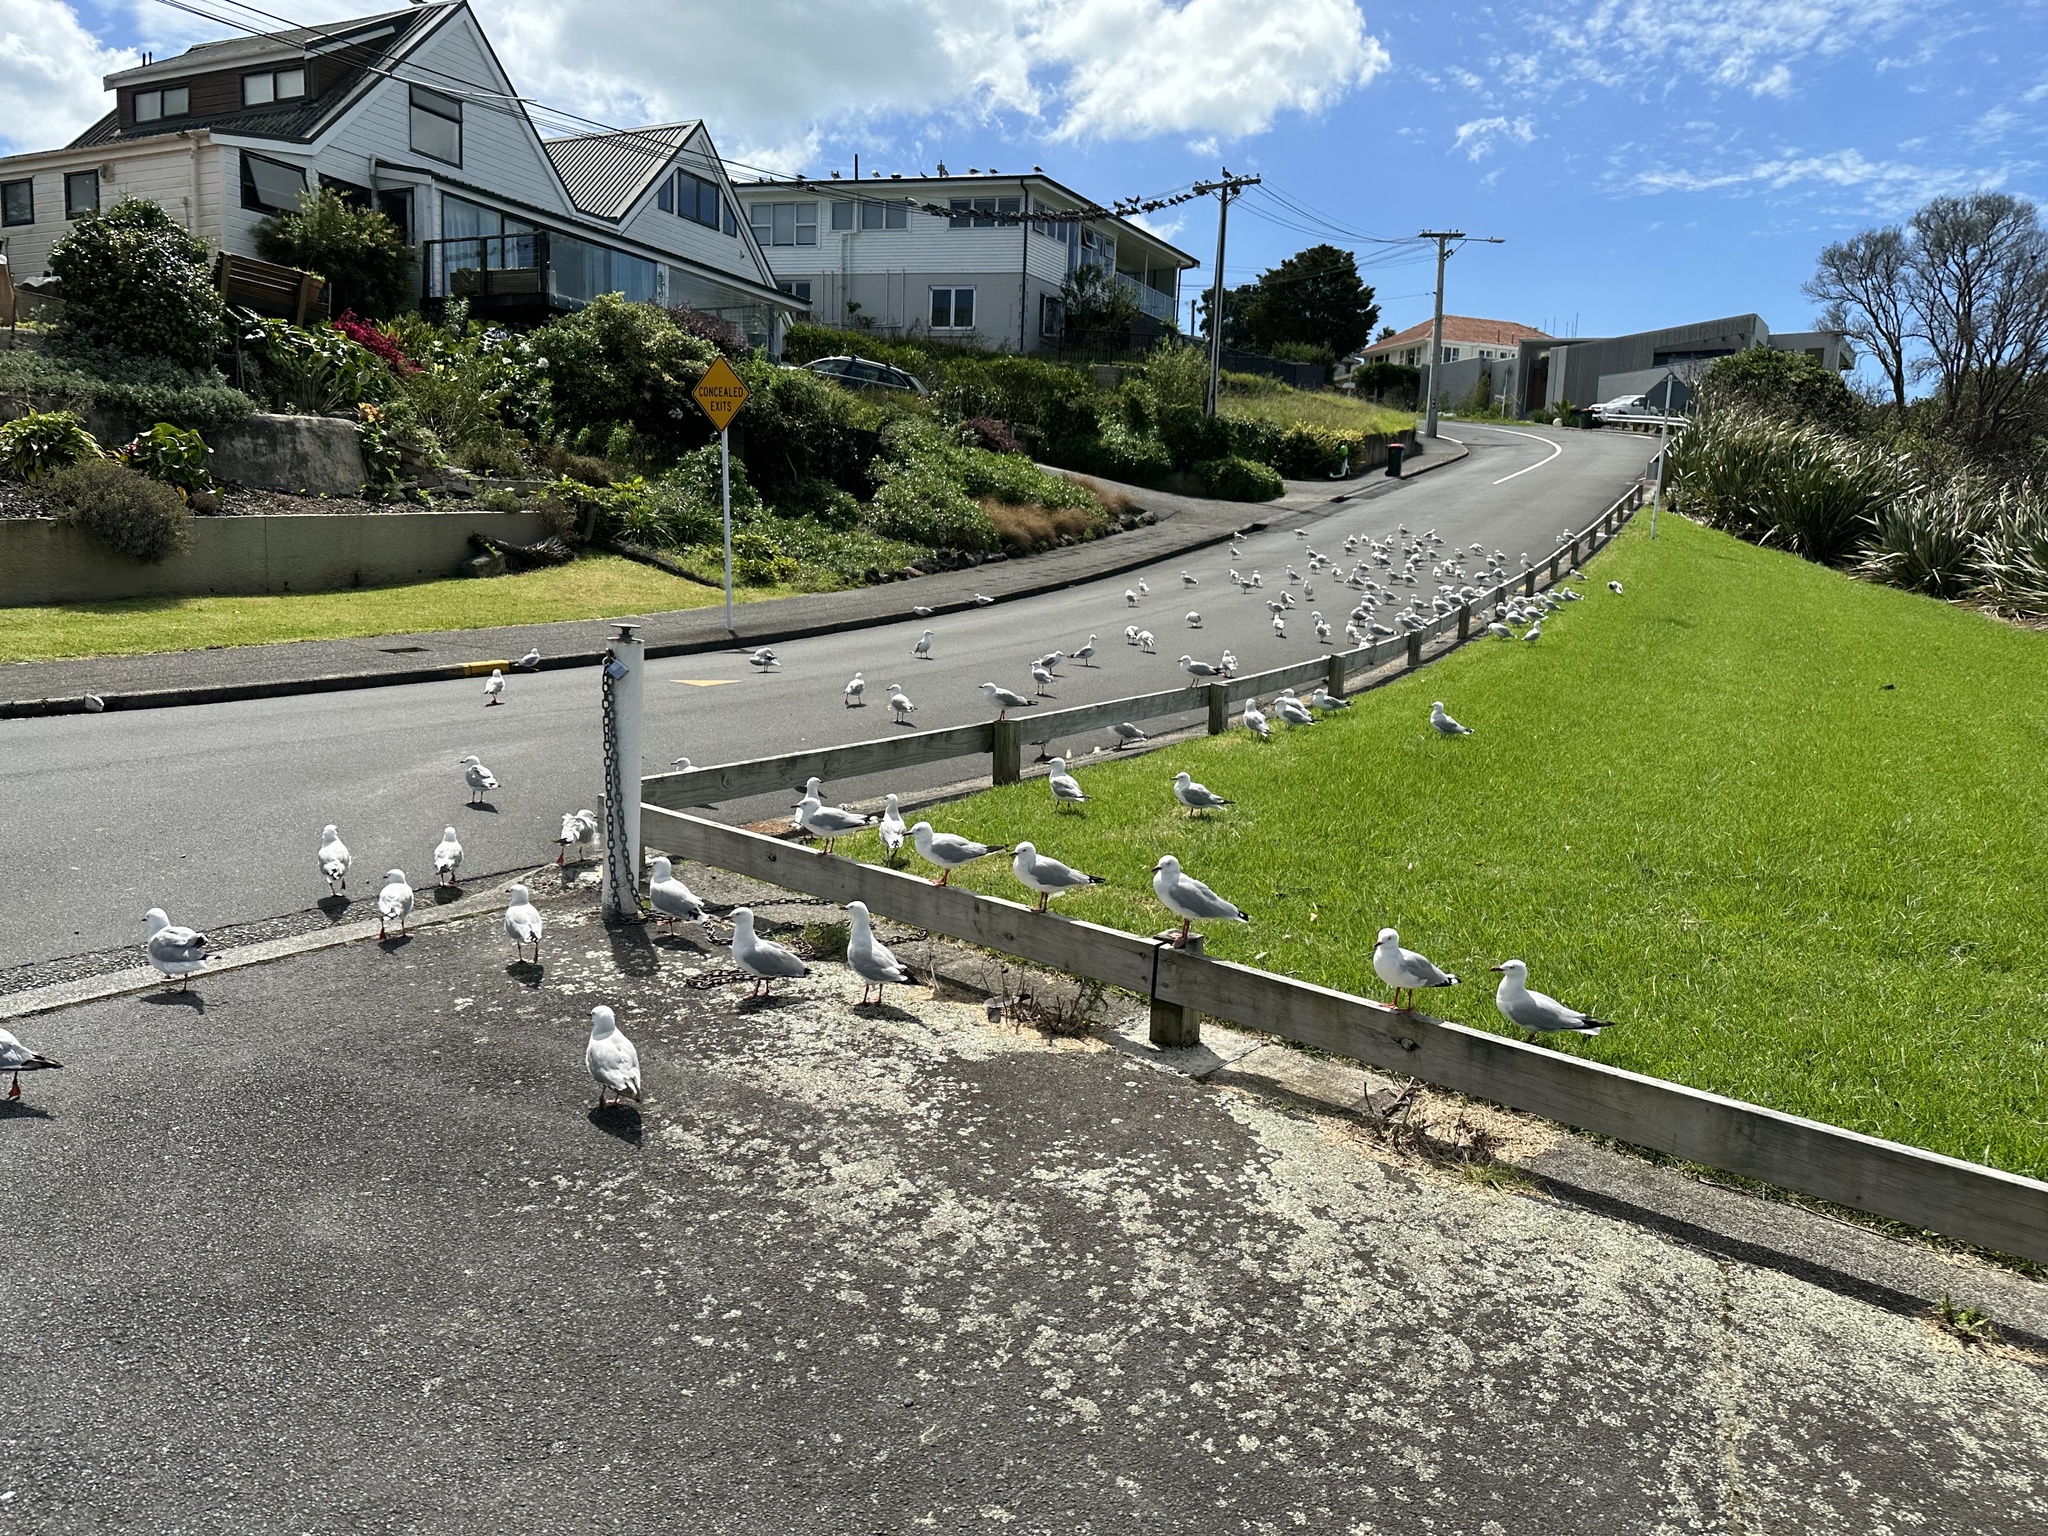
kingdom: Animalia
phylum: Chordata
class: Aves
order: Charadriiformes
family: Laridae
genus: Chroicocephalus
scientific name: Chroicocephalus novaehollandiae
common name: Silver gull
